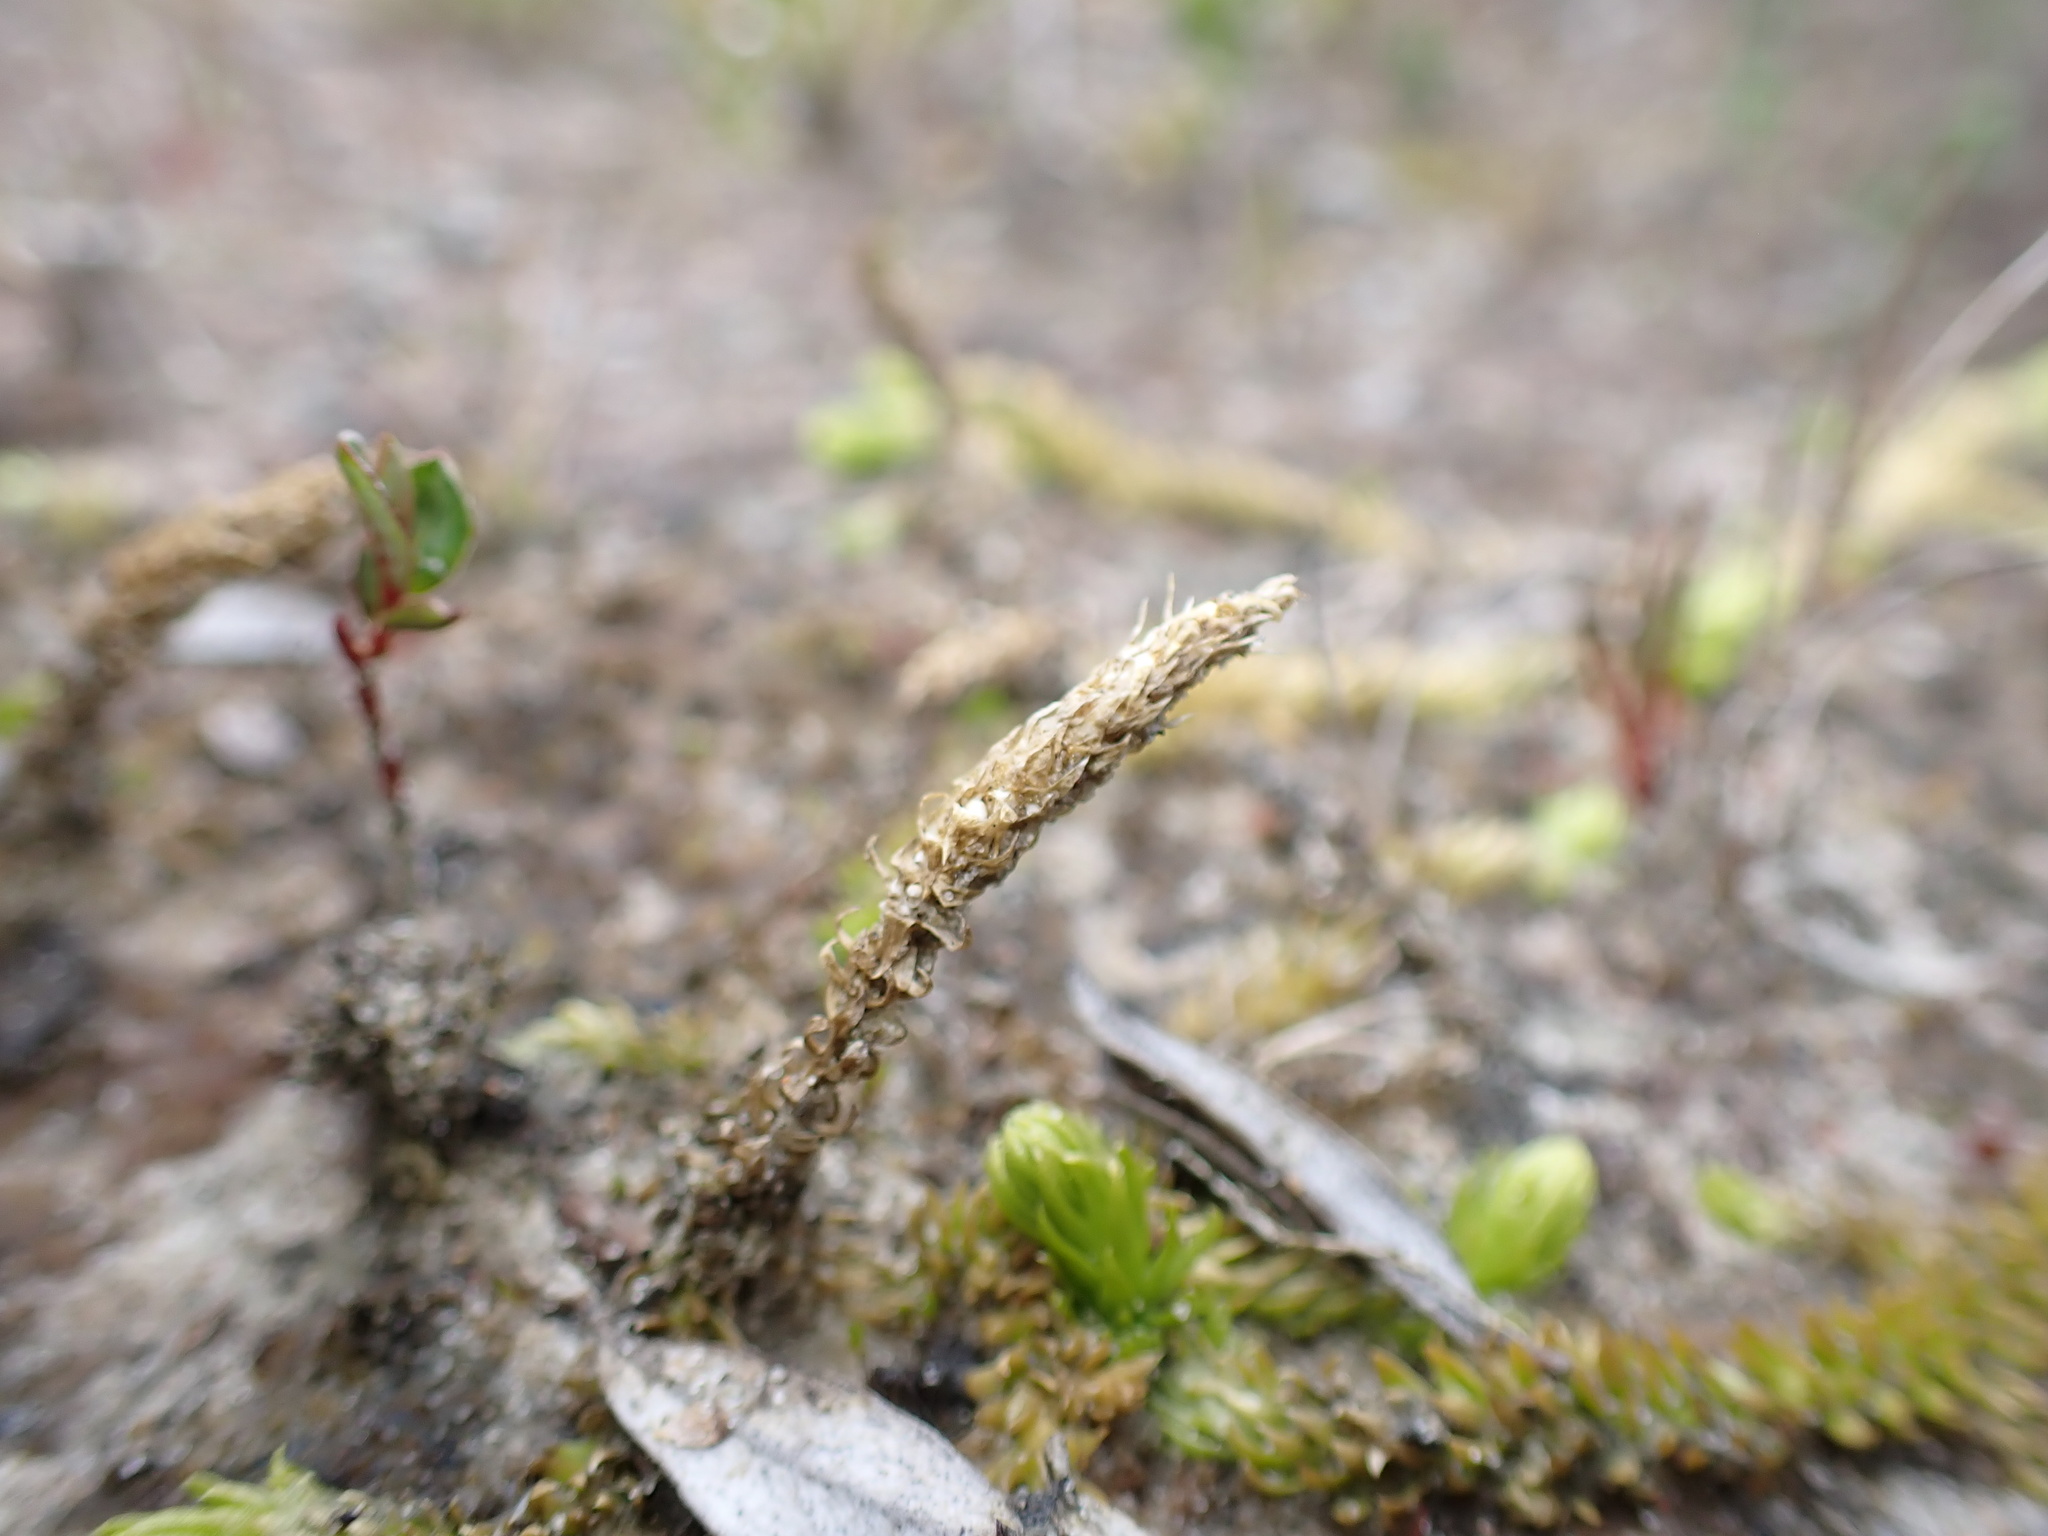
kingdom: Plantae
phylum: Tracheophyta
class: Lycopodiopsida
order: Lycopodiales
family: Lycopodiaceae
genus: Lycopodiella
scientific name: Lycopodiella inundata
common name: Marsh clubmoss
